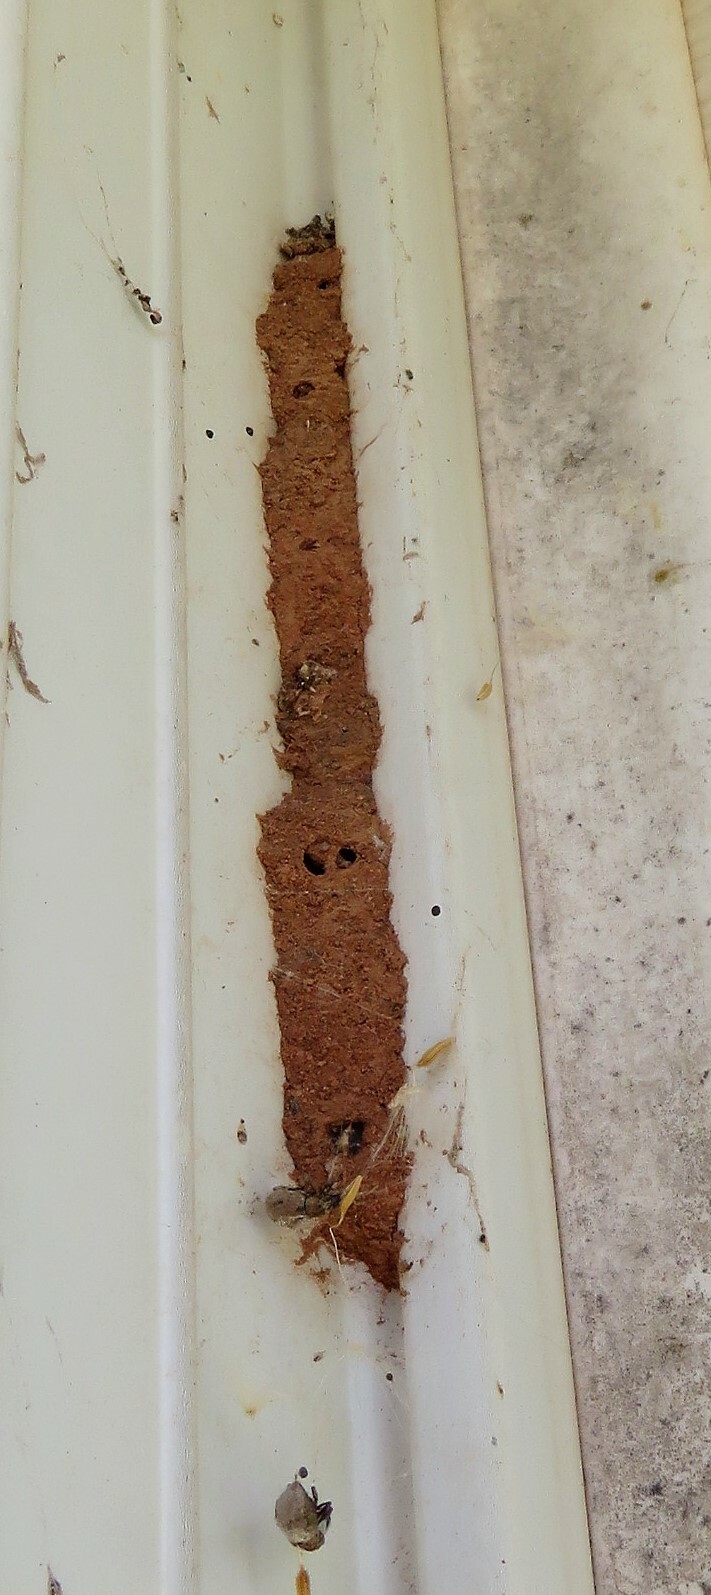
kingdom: Animalia
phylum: Arthropoda
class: Insecta
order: Hymenoptera
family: Vespidae
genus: Ancistrocerus
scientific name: Ancistrocerus
